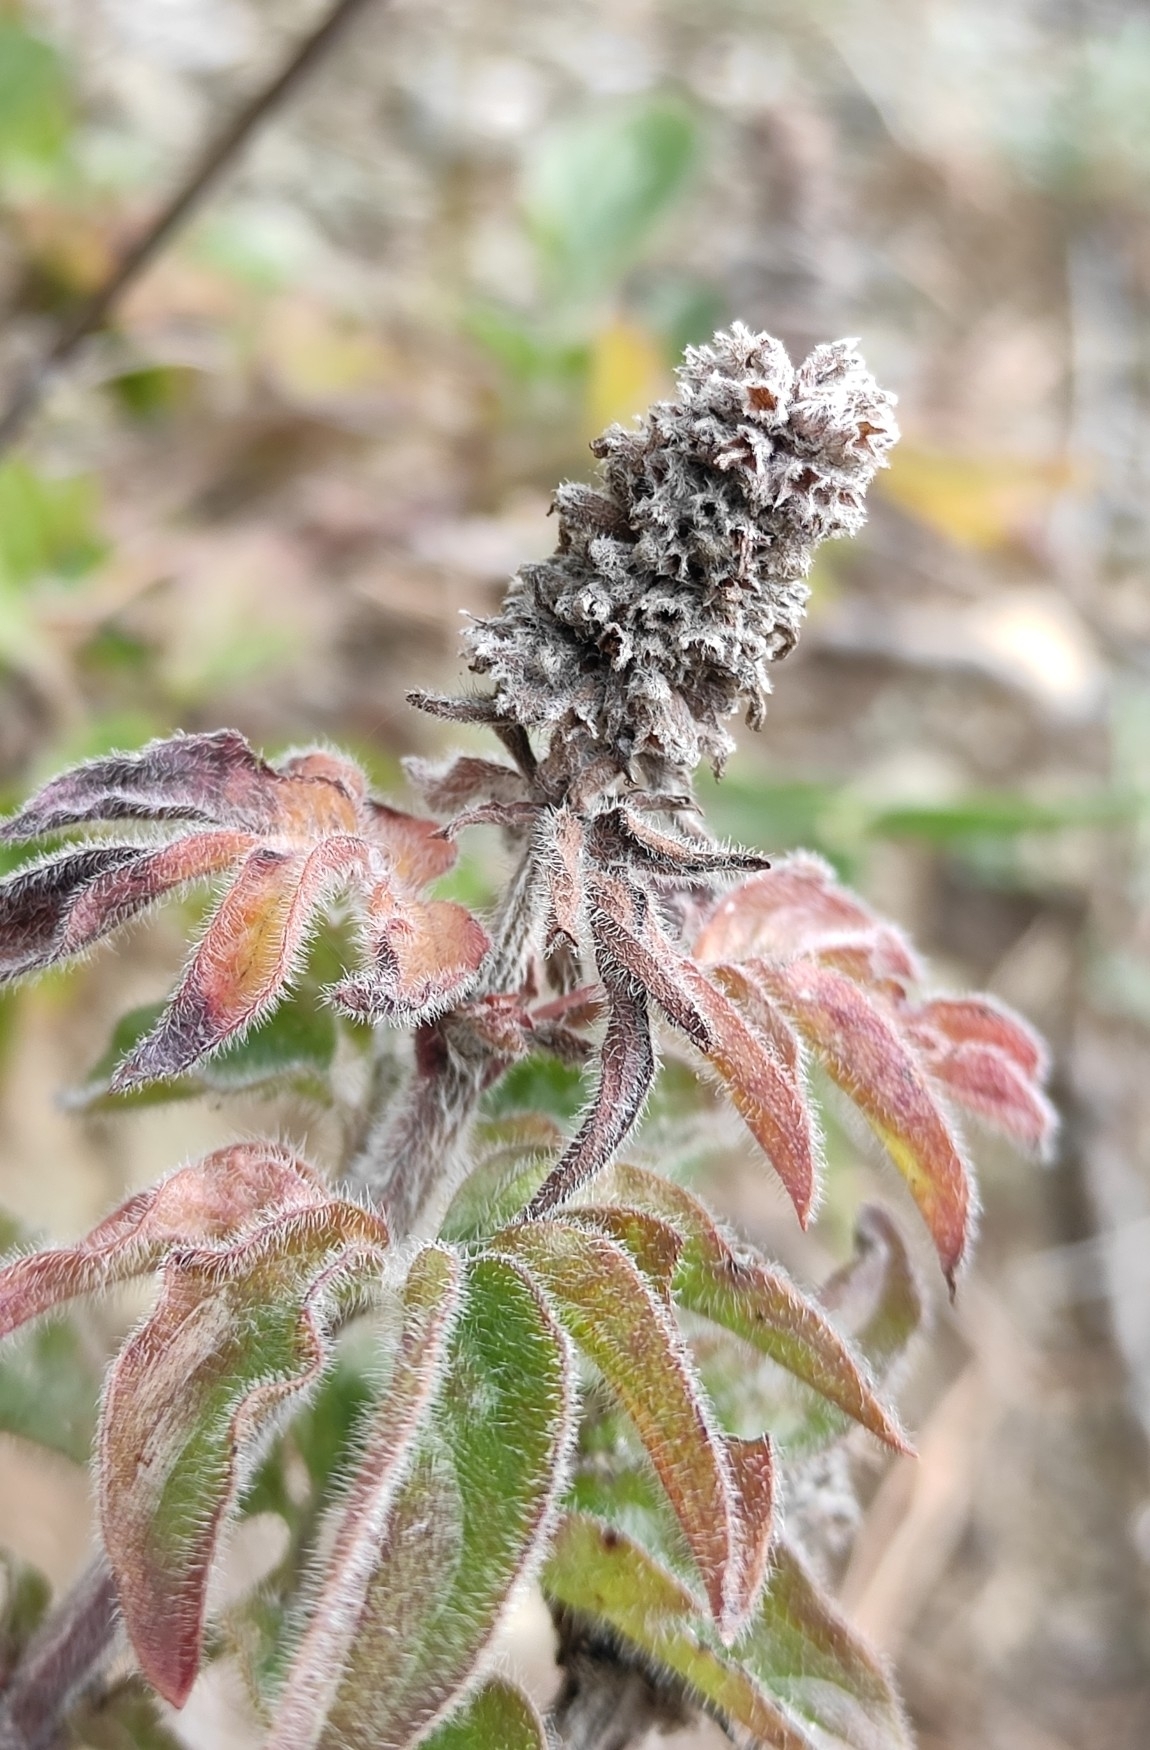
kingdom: Plantae
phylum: Tracheophyta
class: Magnoliopsida
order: Lamiales
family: Lamiaceae
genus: Nepeta
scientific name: Nepeta multifida
